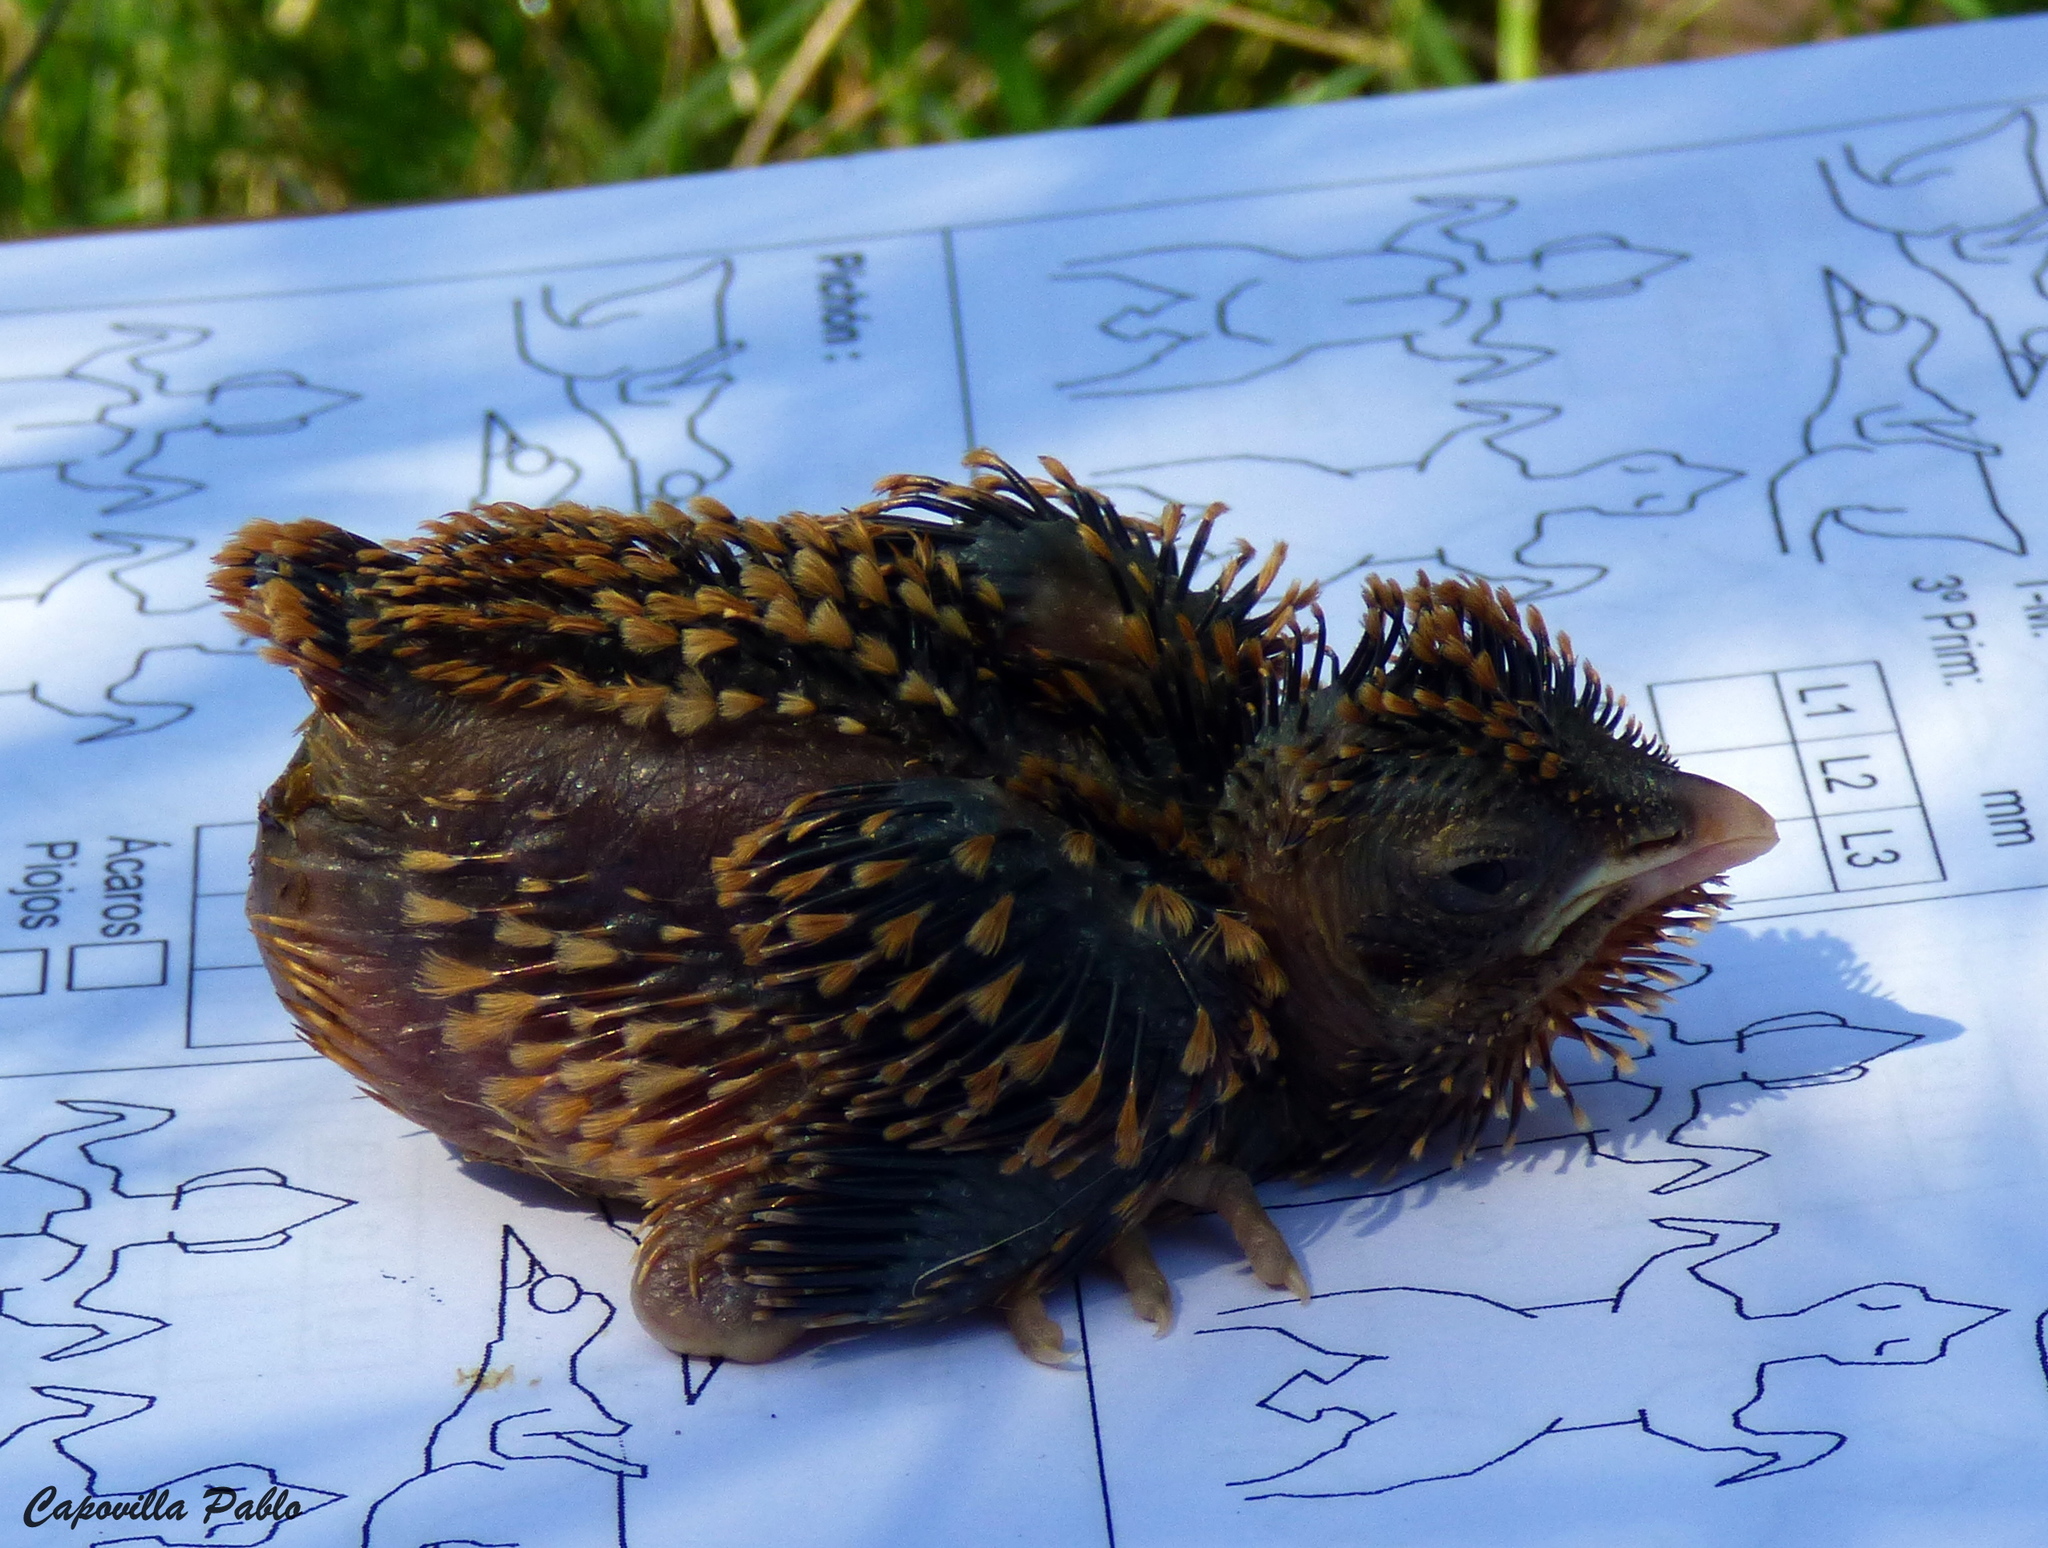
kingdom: Animalia
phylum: Chordata
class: Aves
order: Cuculiformes
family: Cuculidae
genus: Tapera
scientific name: Tapera naevia
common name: Striped cuckoo
